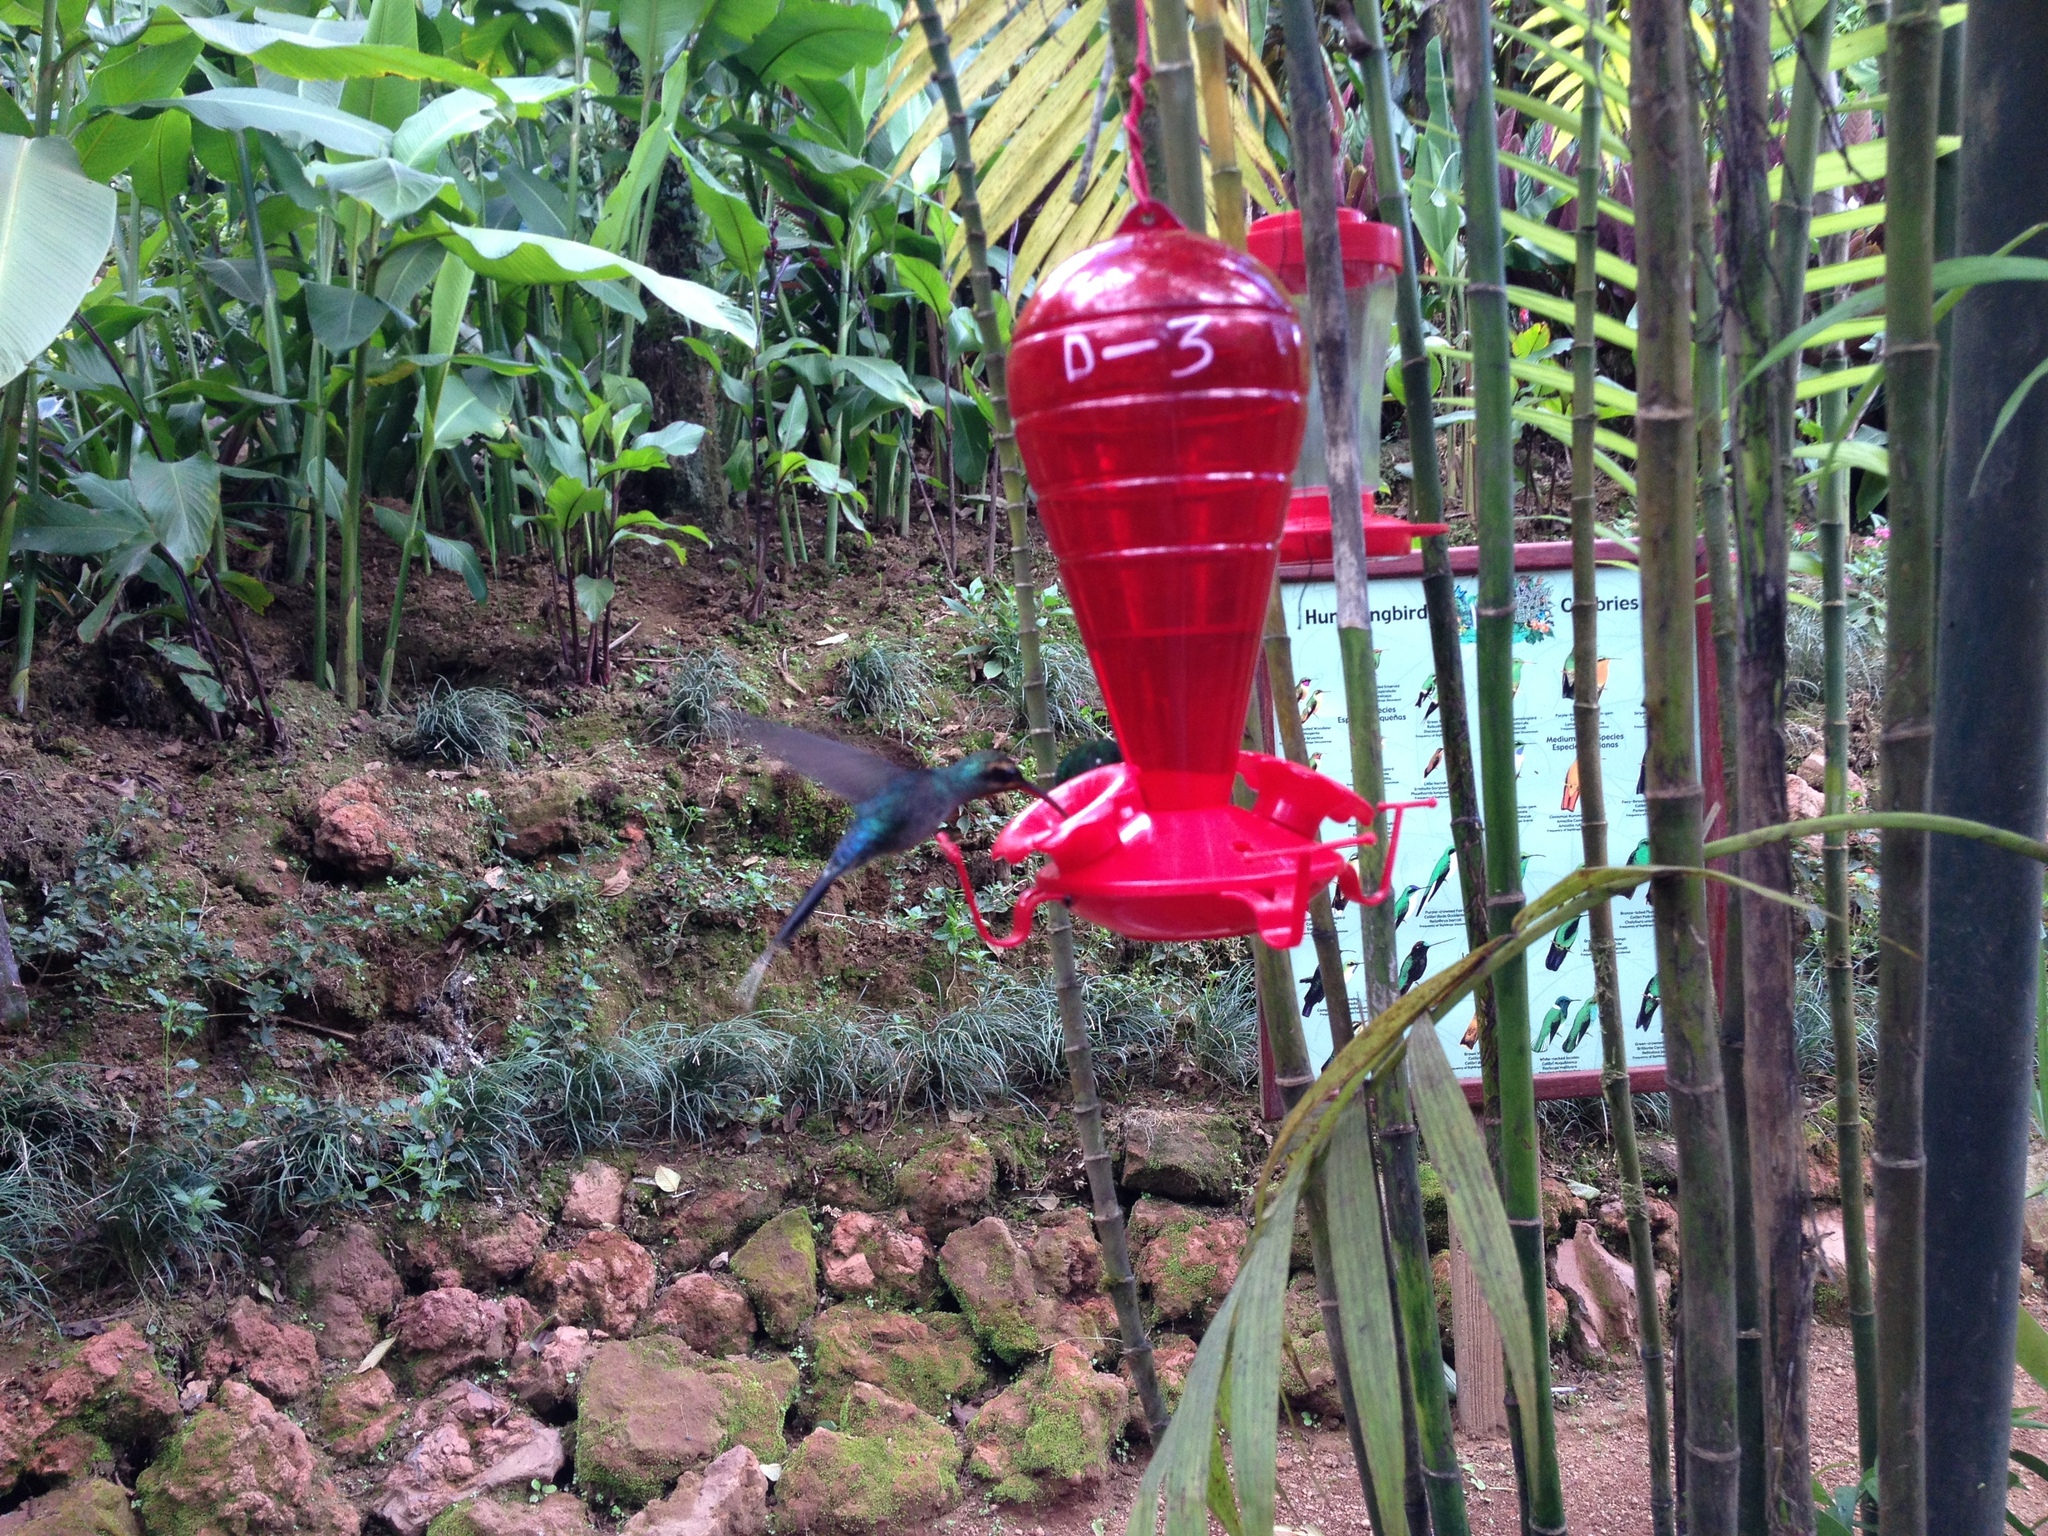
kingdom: Animalia
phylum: Chordata
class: Aves
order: Apodiformes
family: Trochilidae
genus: Phaethornis
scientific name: Phaethornis guy
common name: Green hermit
